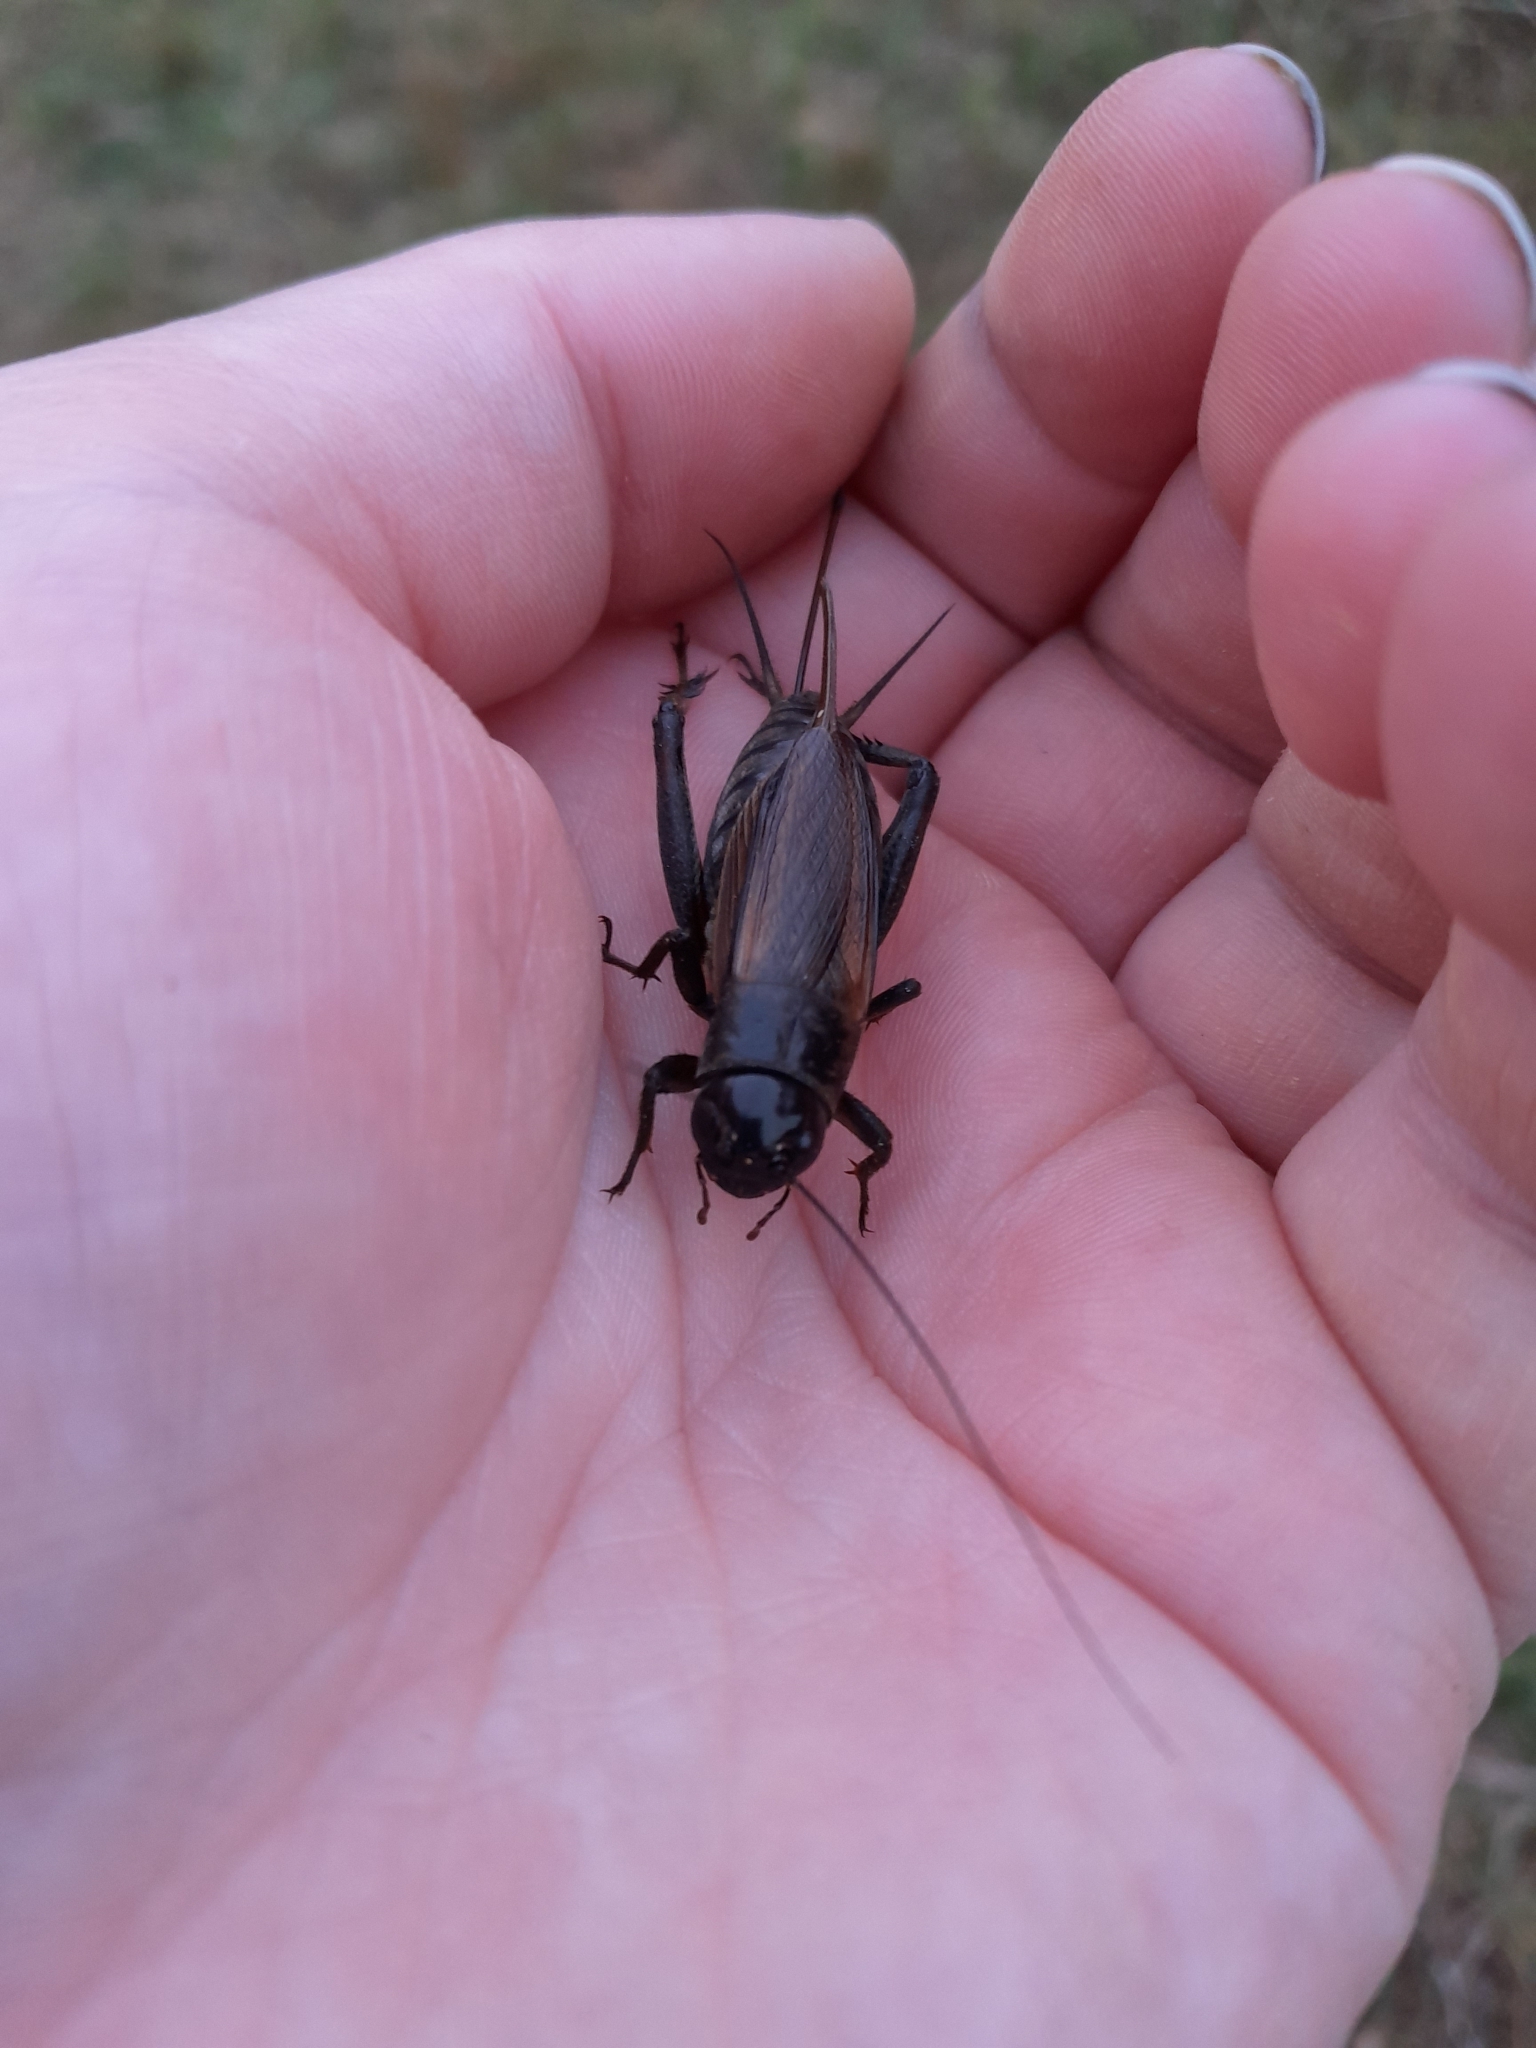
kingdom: Animalia
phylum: Arthropoda
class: Insecta
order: Orthoptera
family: Gryllidae
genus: Teleogryllus
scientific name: Teleogryllus commodus
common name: Black field cricket
